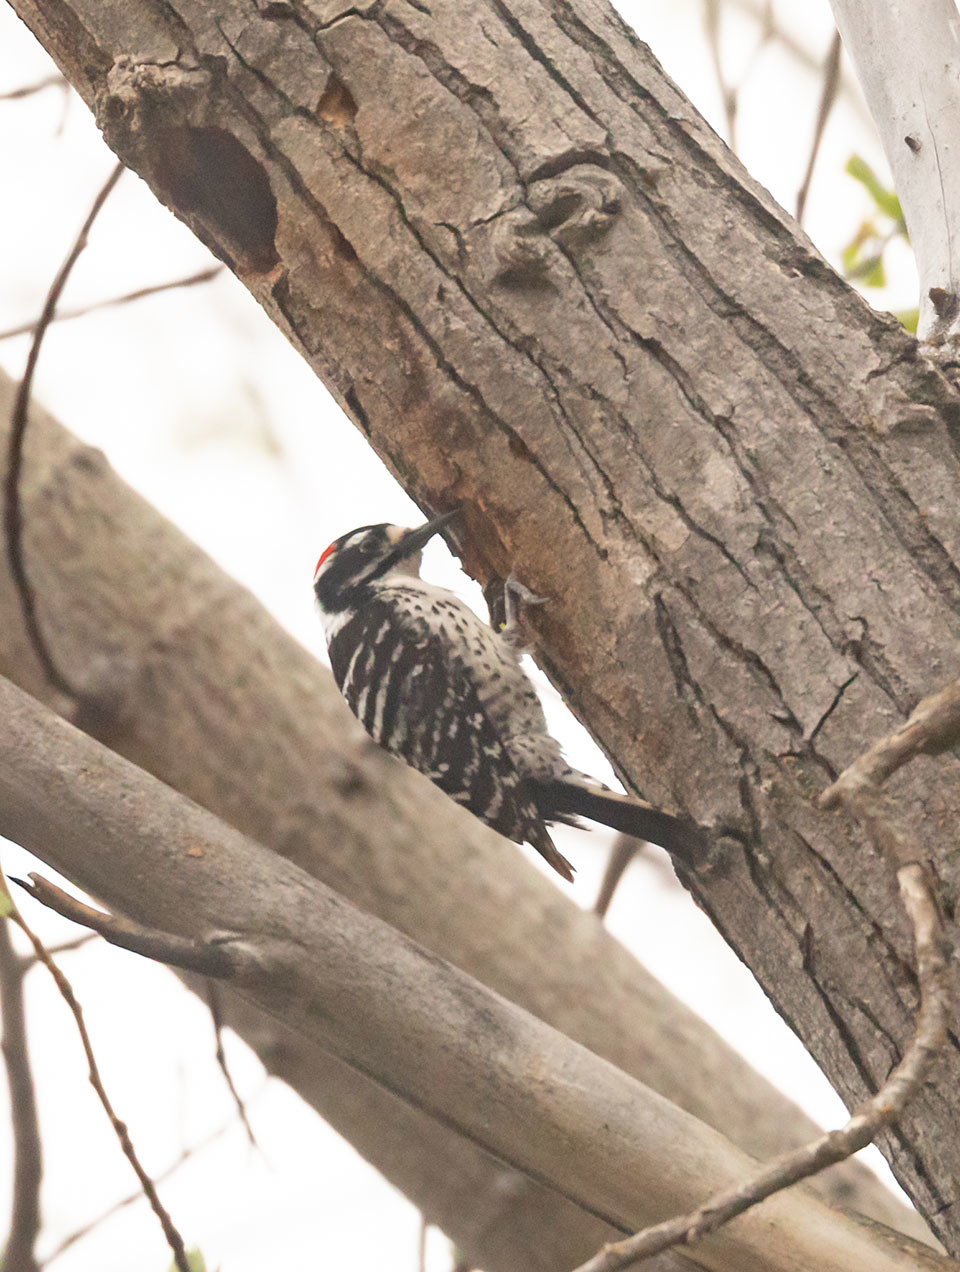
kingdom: Animalia
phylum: Chordata
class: Aves
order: Piciformes
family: Picidae
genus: Dryobates
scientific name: Dryobates nuttallii
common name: Nuttall's woodpecker
